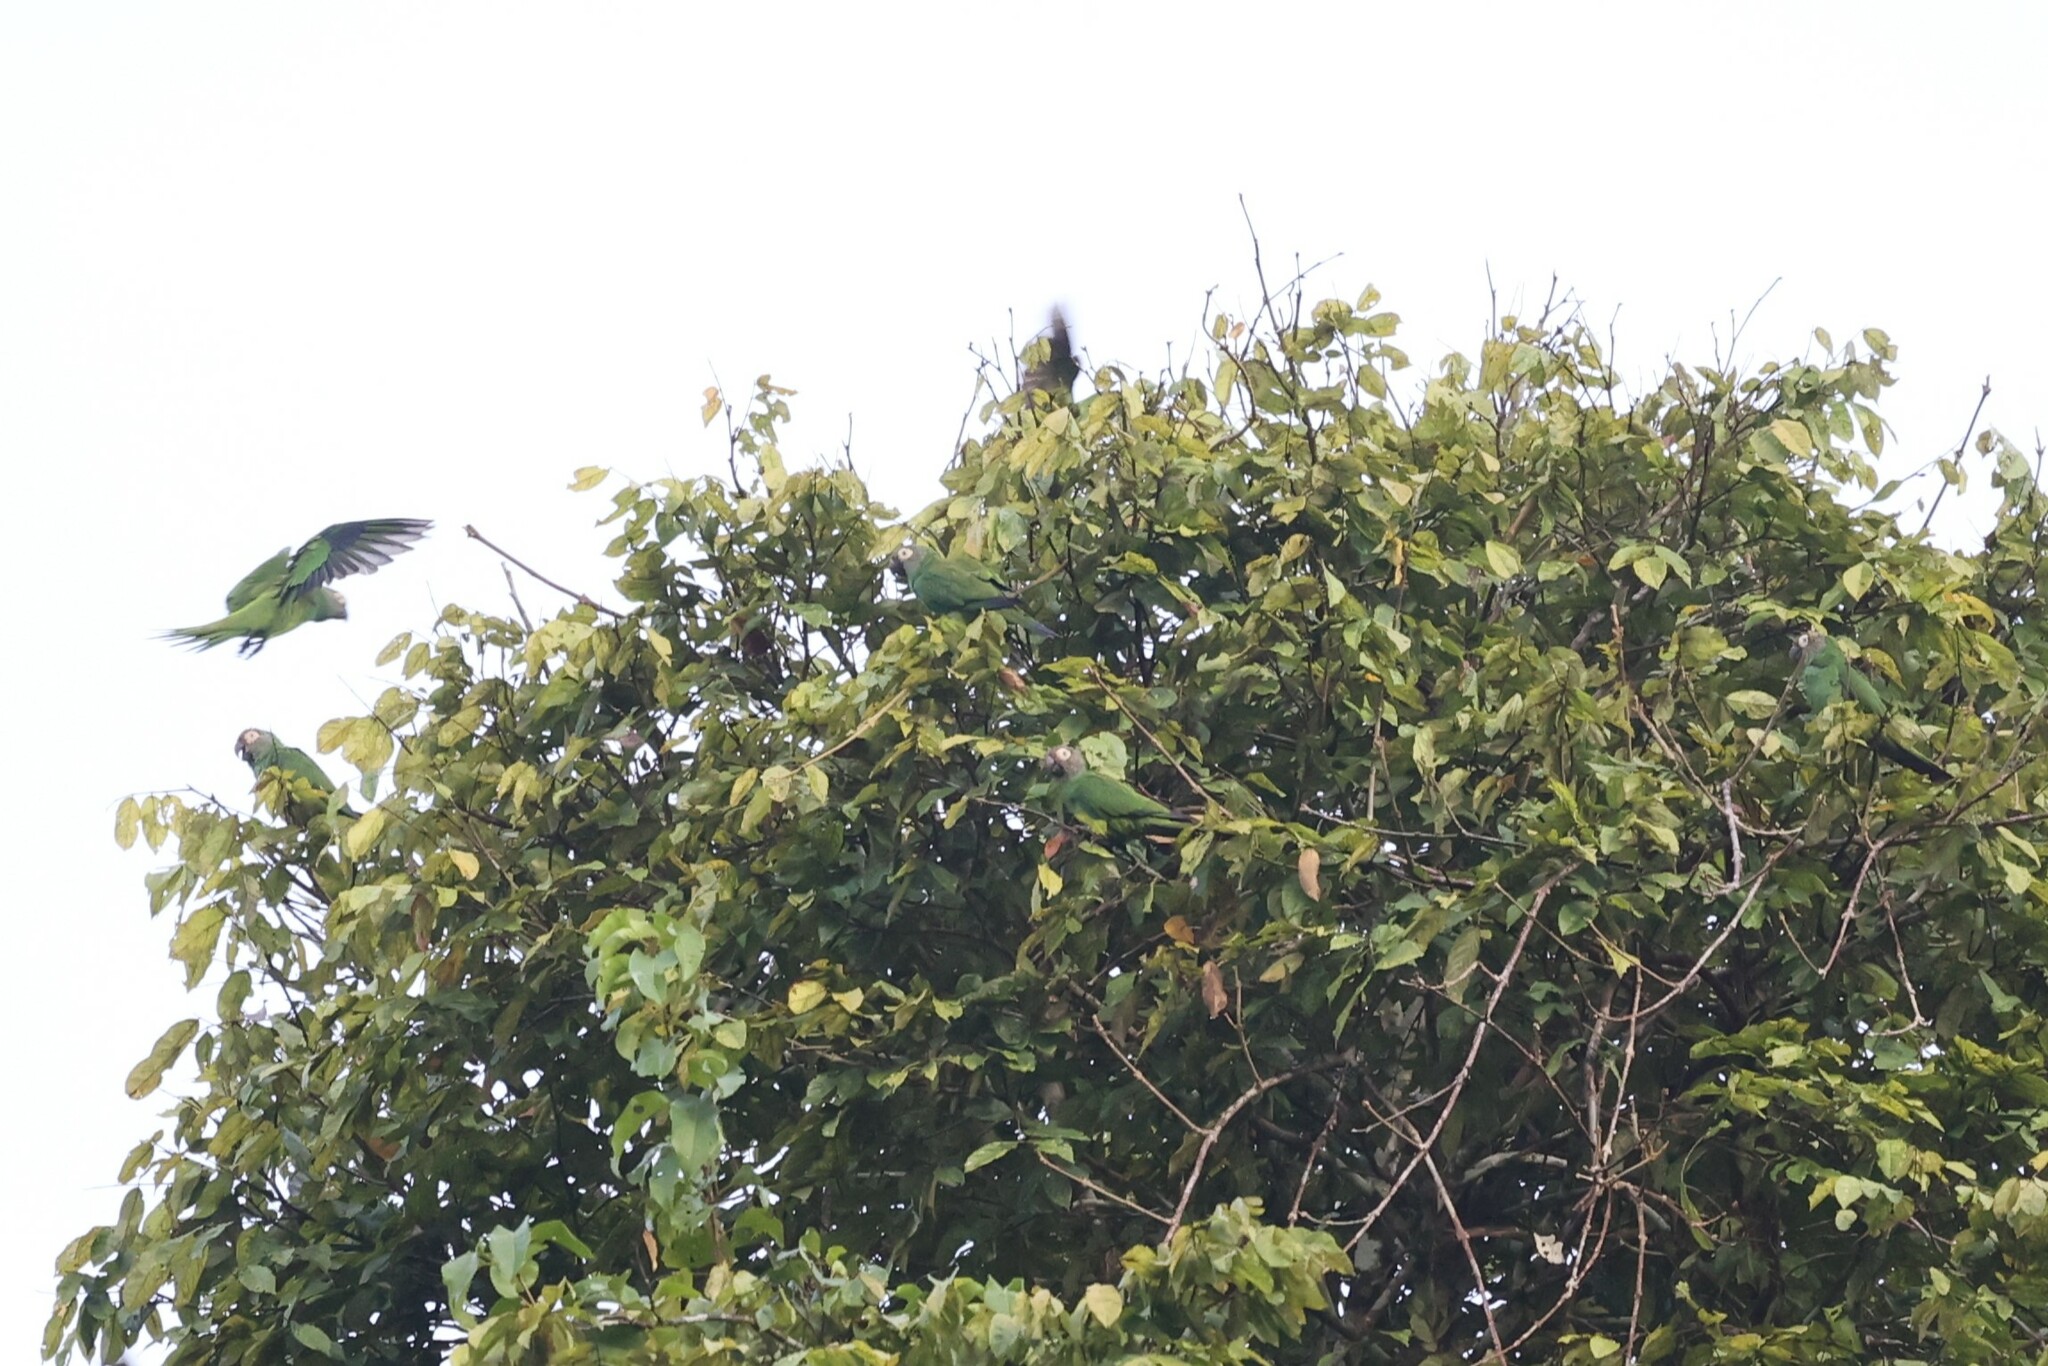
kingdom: Animalia
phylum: Chordata
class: Aves
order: Psittaciformes
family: Psittacidae
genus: Aratinga
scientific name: Aratinga weddellii
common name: Dusky-headed parakeet
